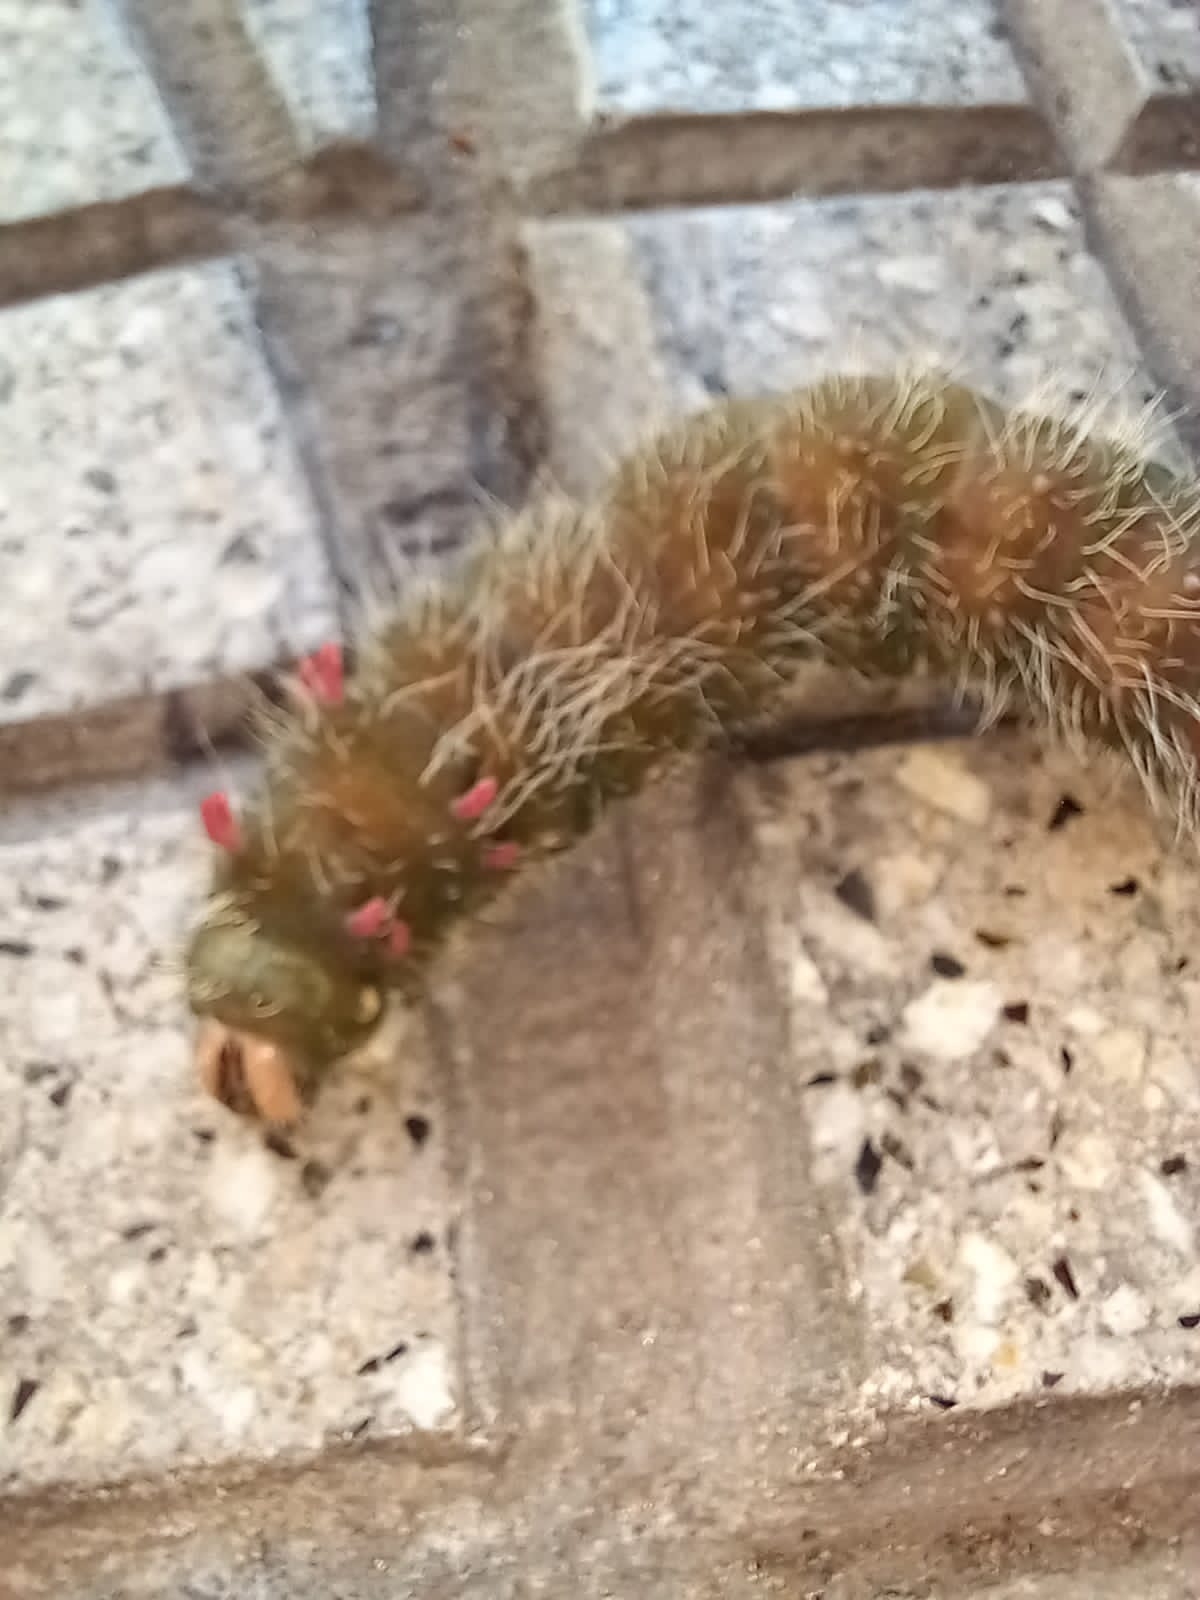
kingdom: Animalia
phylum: Arthropoda
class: Insecta
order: Lepidoptera
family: Saturniidae
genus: Eacles
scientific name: Eacles imperialis
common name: Imperial moth
